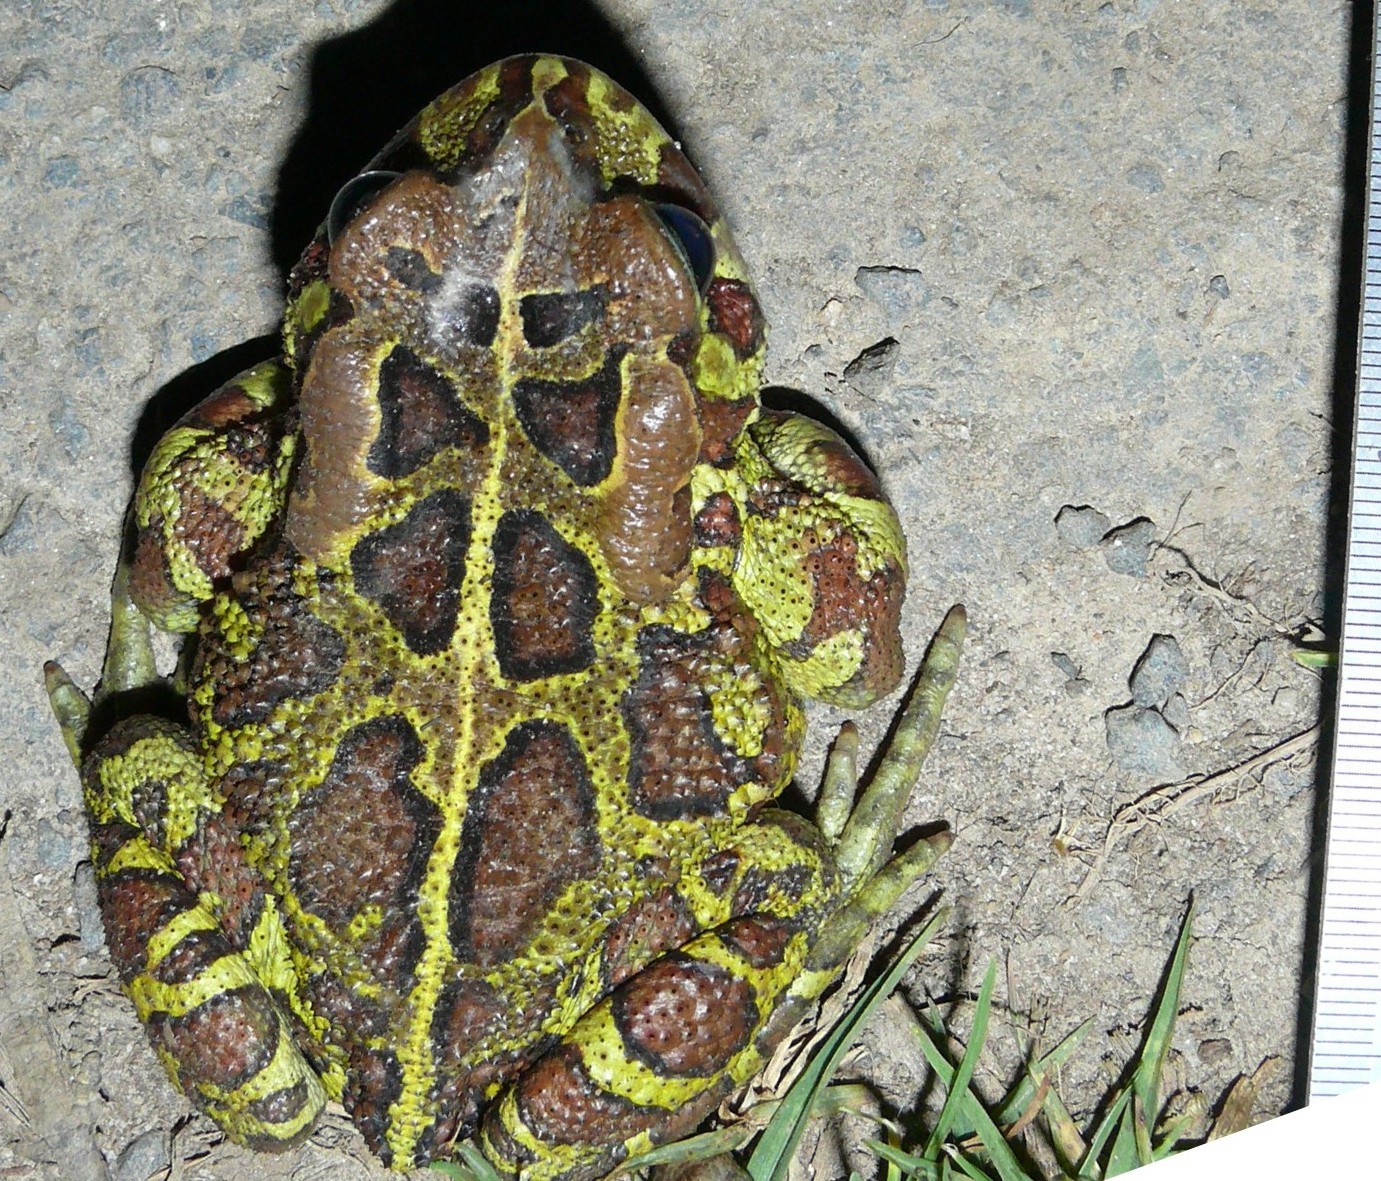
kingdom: Animalia
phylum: Chordata
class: Amphibia
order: Anura
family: Bufonidae
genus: Sclerophrys
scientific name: Sclerophrys pantherina
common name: Panther toad
